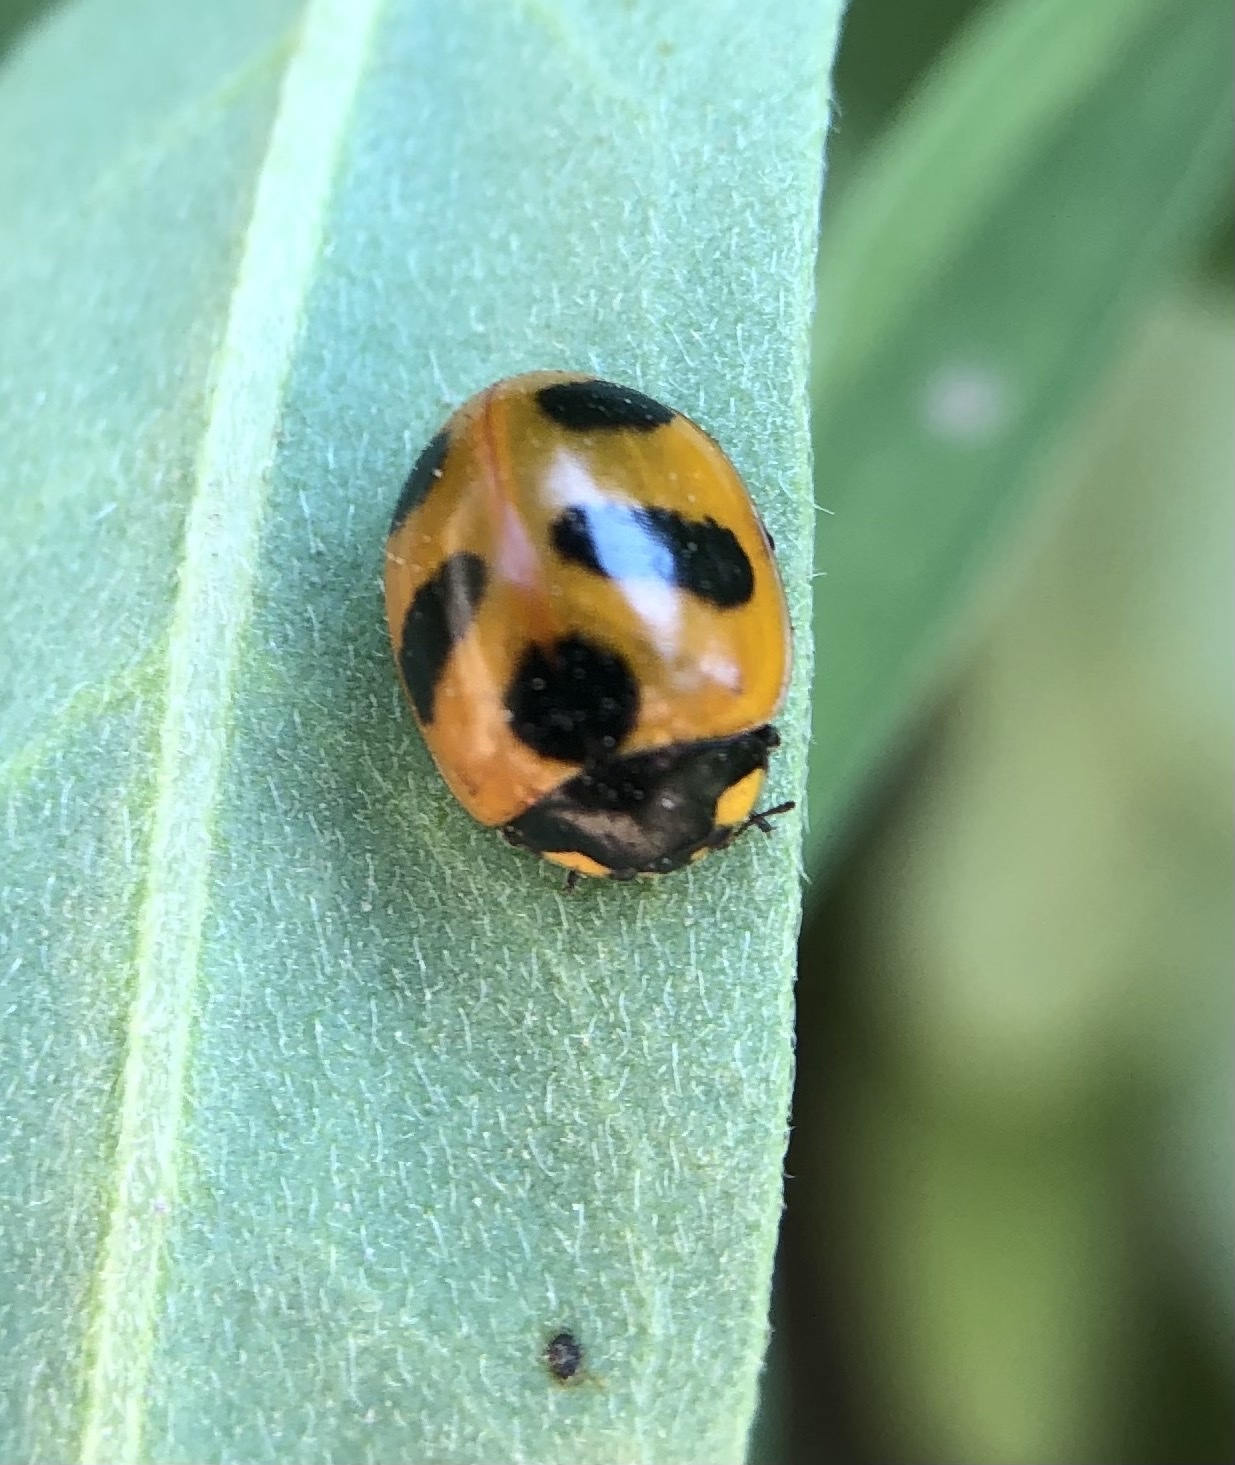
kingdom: Animalia
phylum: Arthropoda
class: Insecta
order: Coleoptera
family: Coccinellidae
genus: Coccinella
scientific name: Coccinella monticola
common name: Mountain lady beetle
